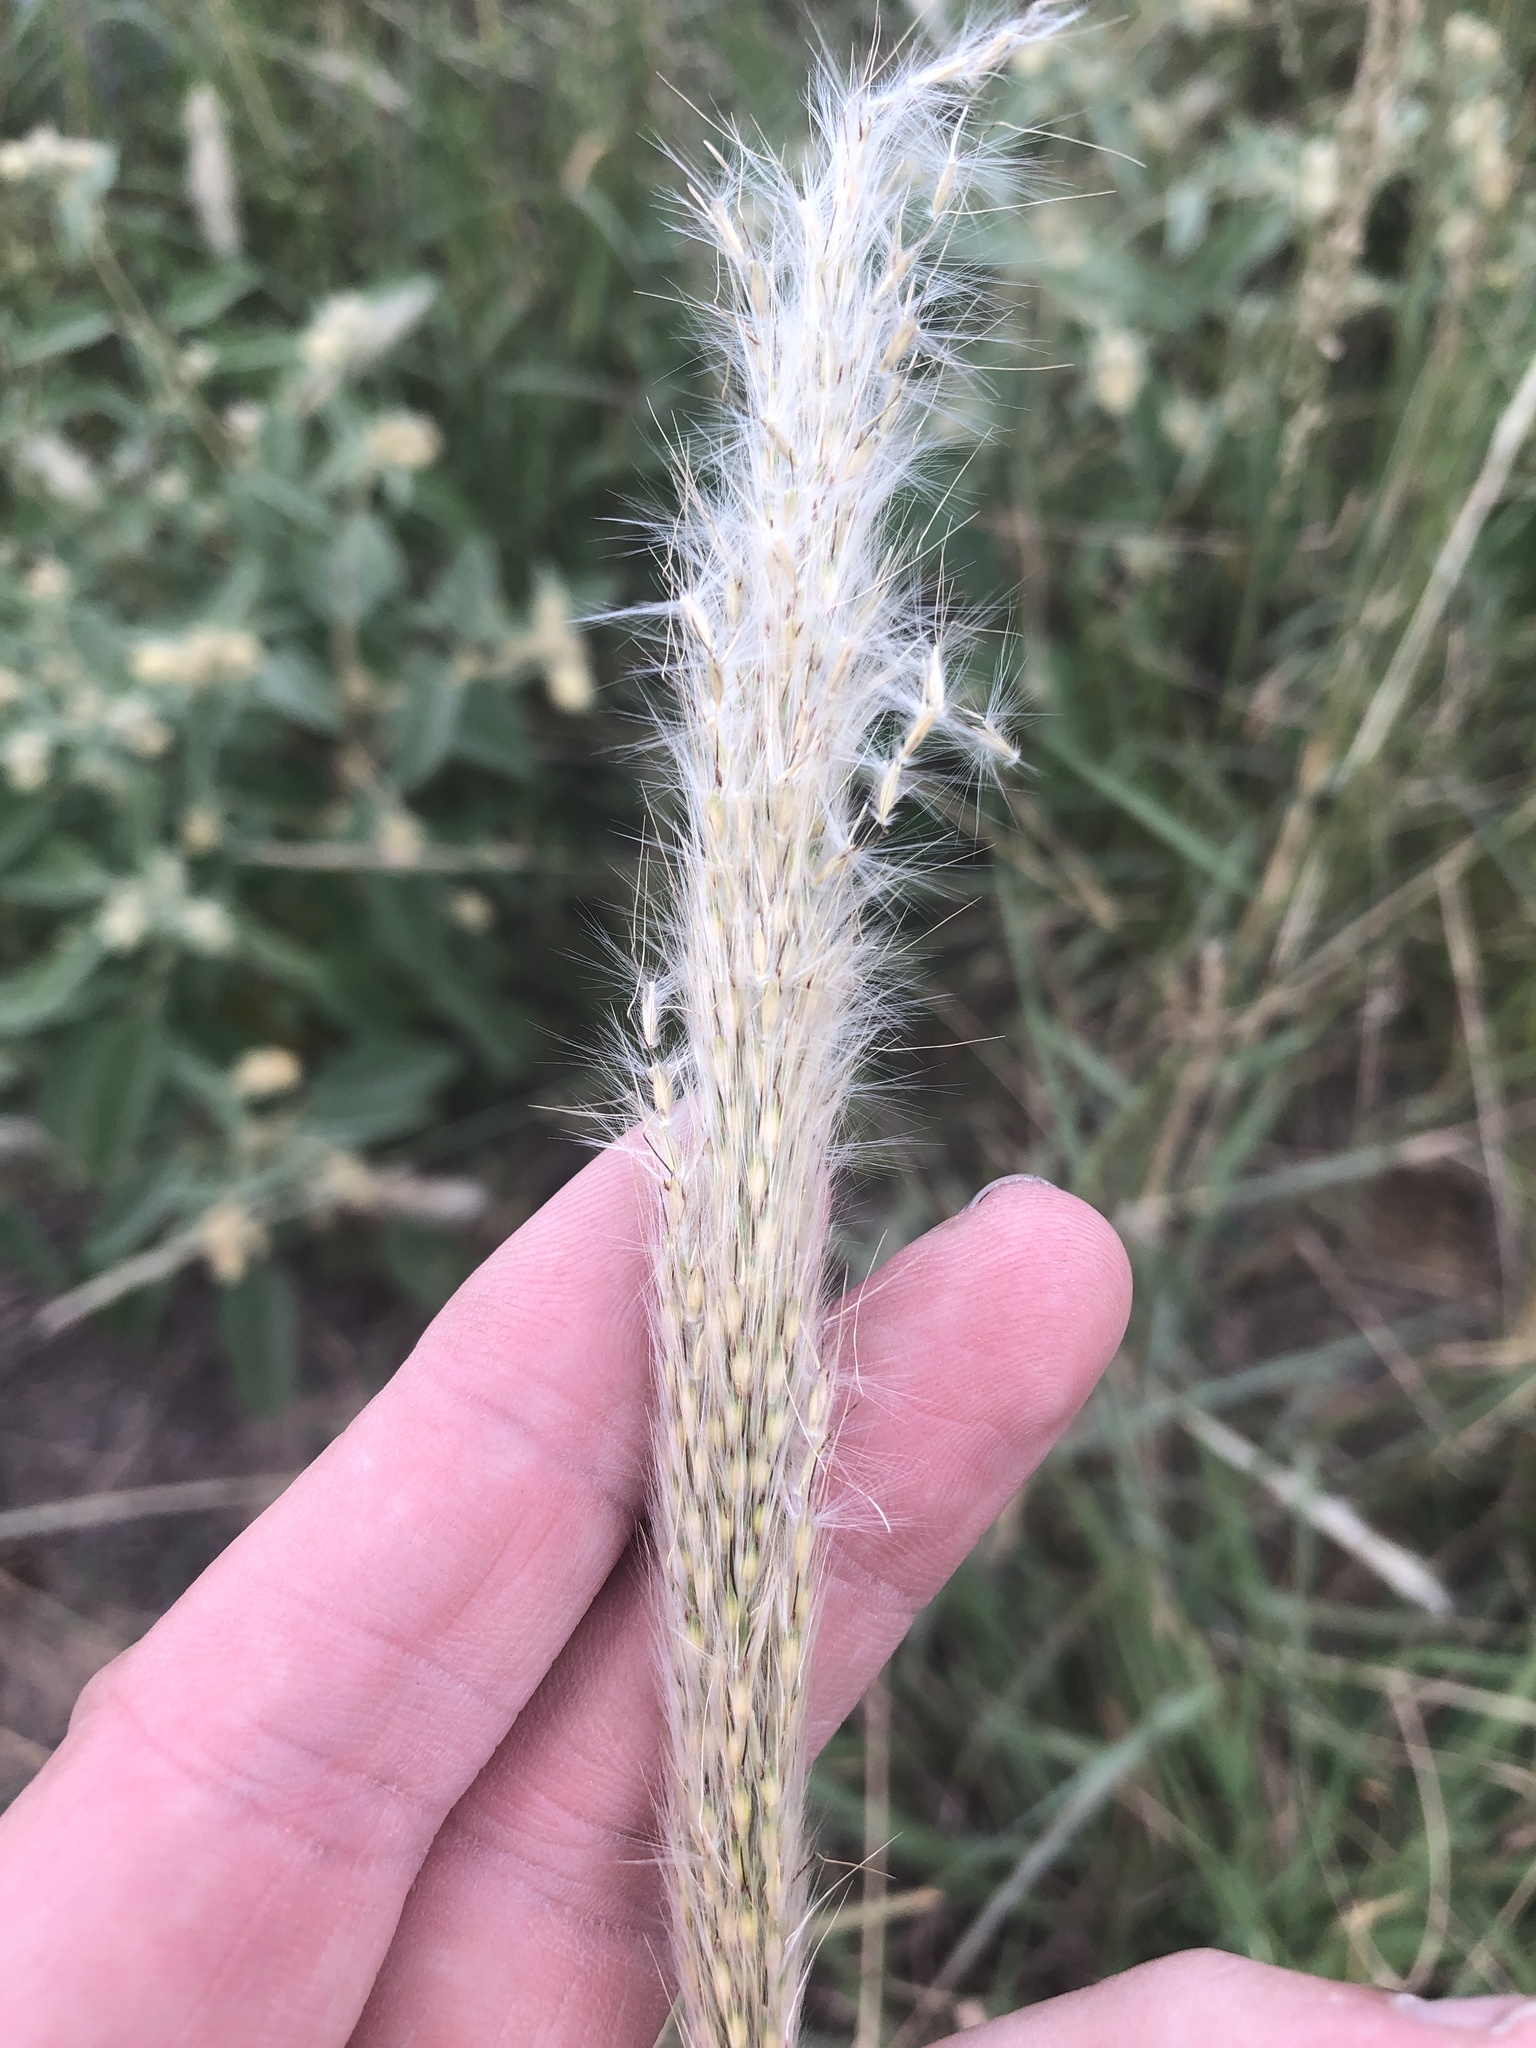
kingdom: Plantae
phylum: Tracheophyta
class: Liliopsida
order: Poales
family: Poaceae
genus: Bothriochloa
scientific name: Bothriochloa torreyana
